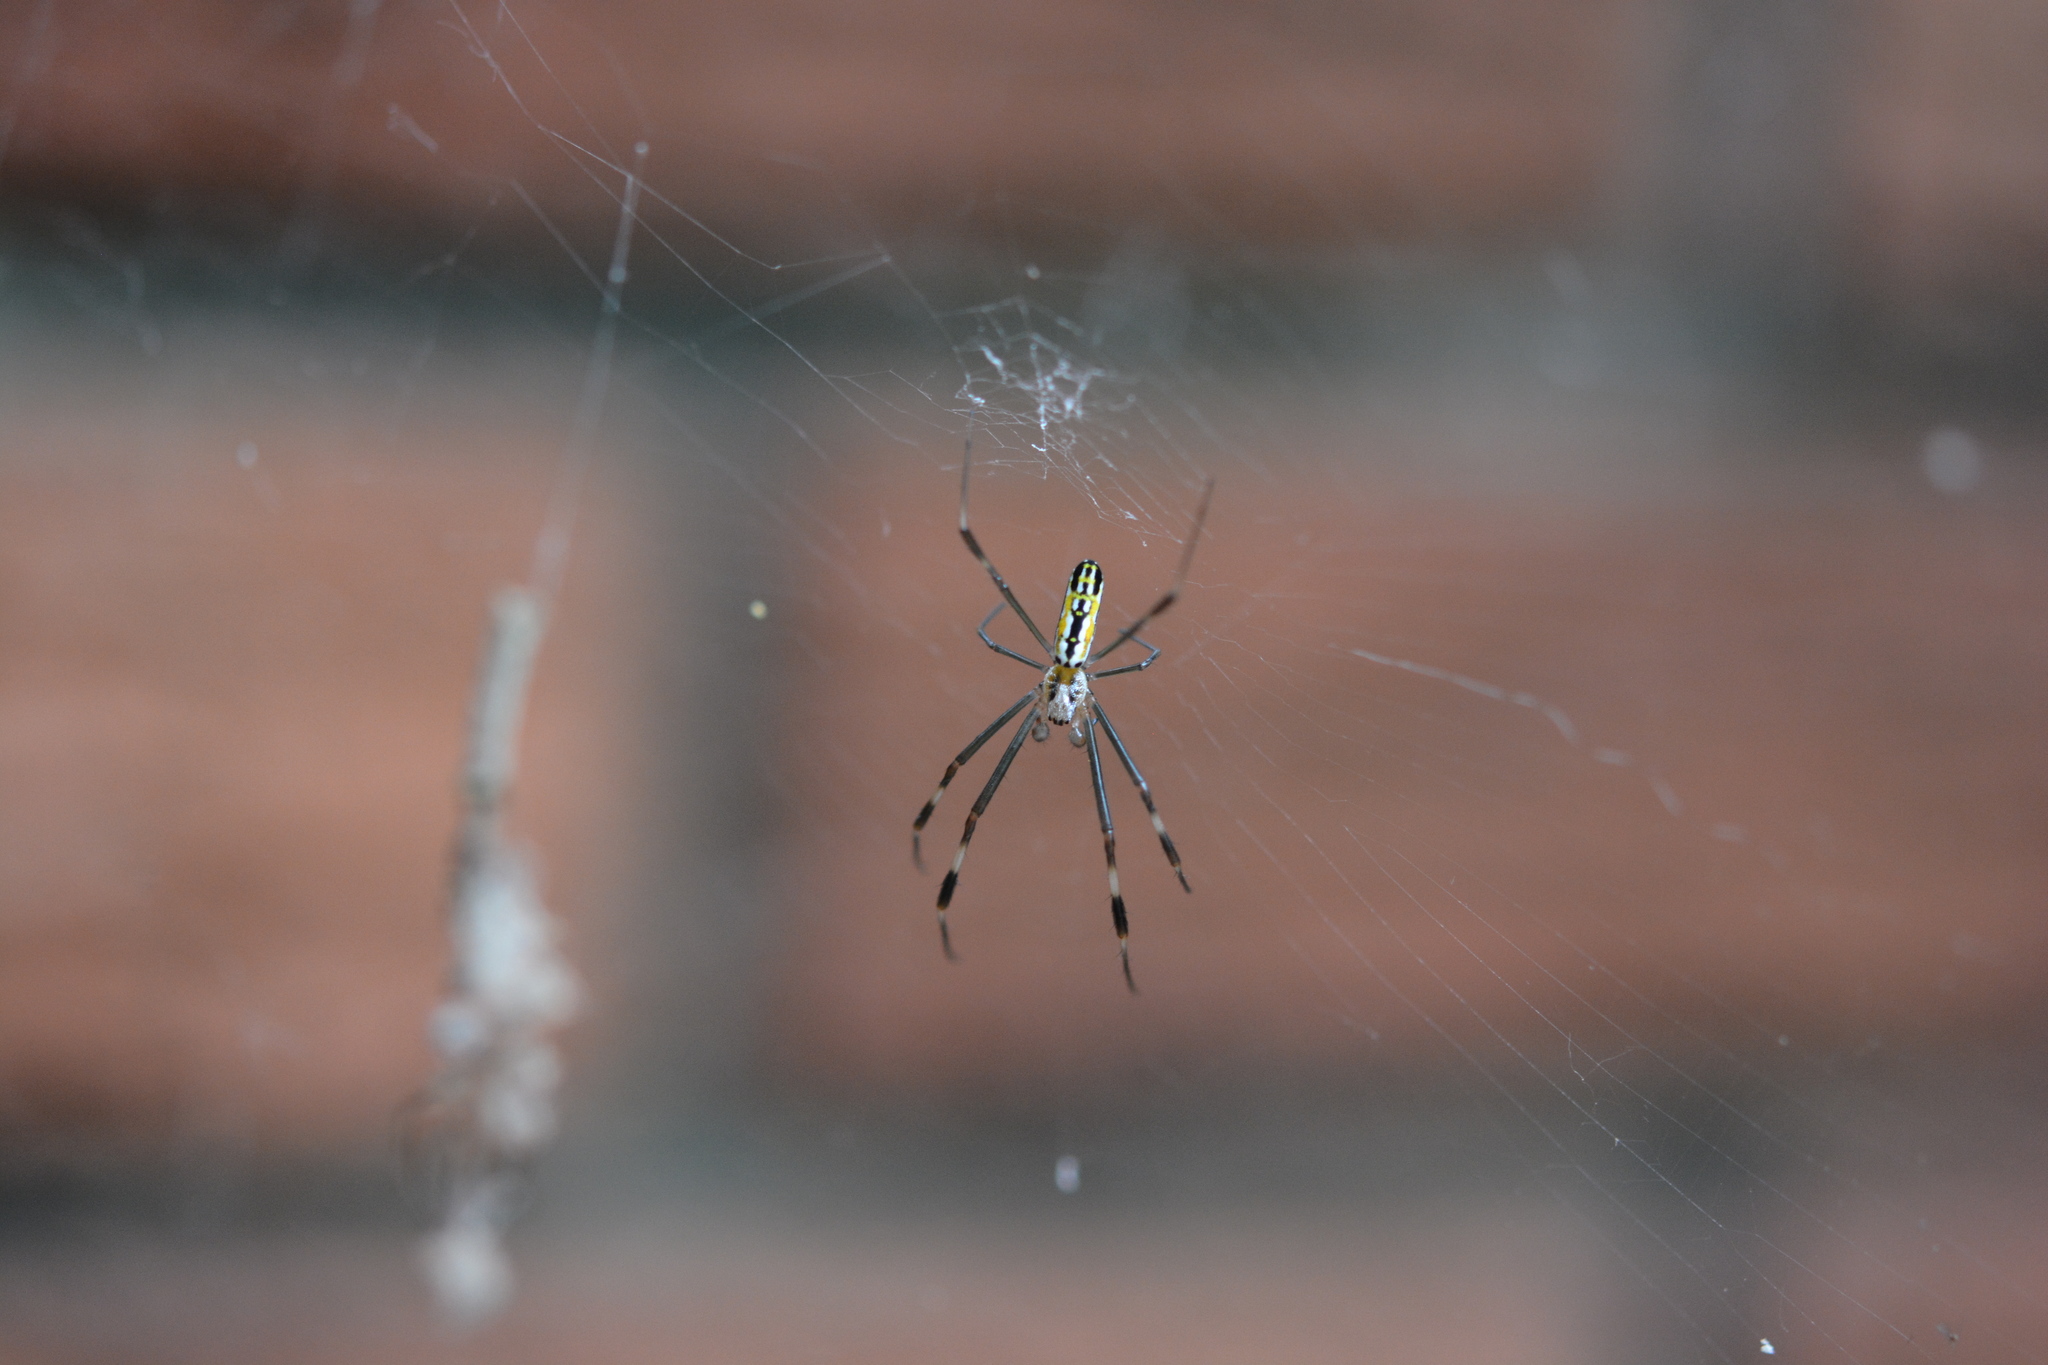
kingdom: Animalia
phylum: Arthropoda
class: Arachnida
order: Araneae
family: Araneidae
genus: Trichonephila
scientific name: Trichonephila clavipes
